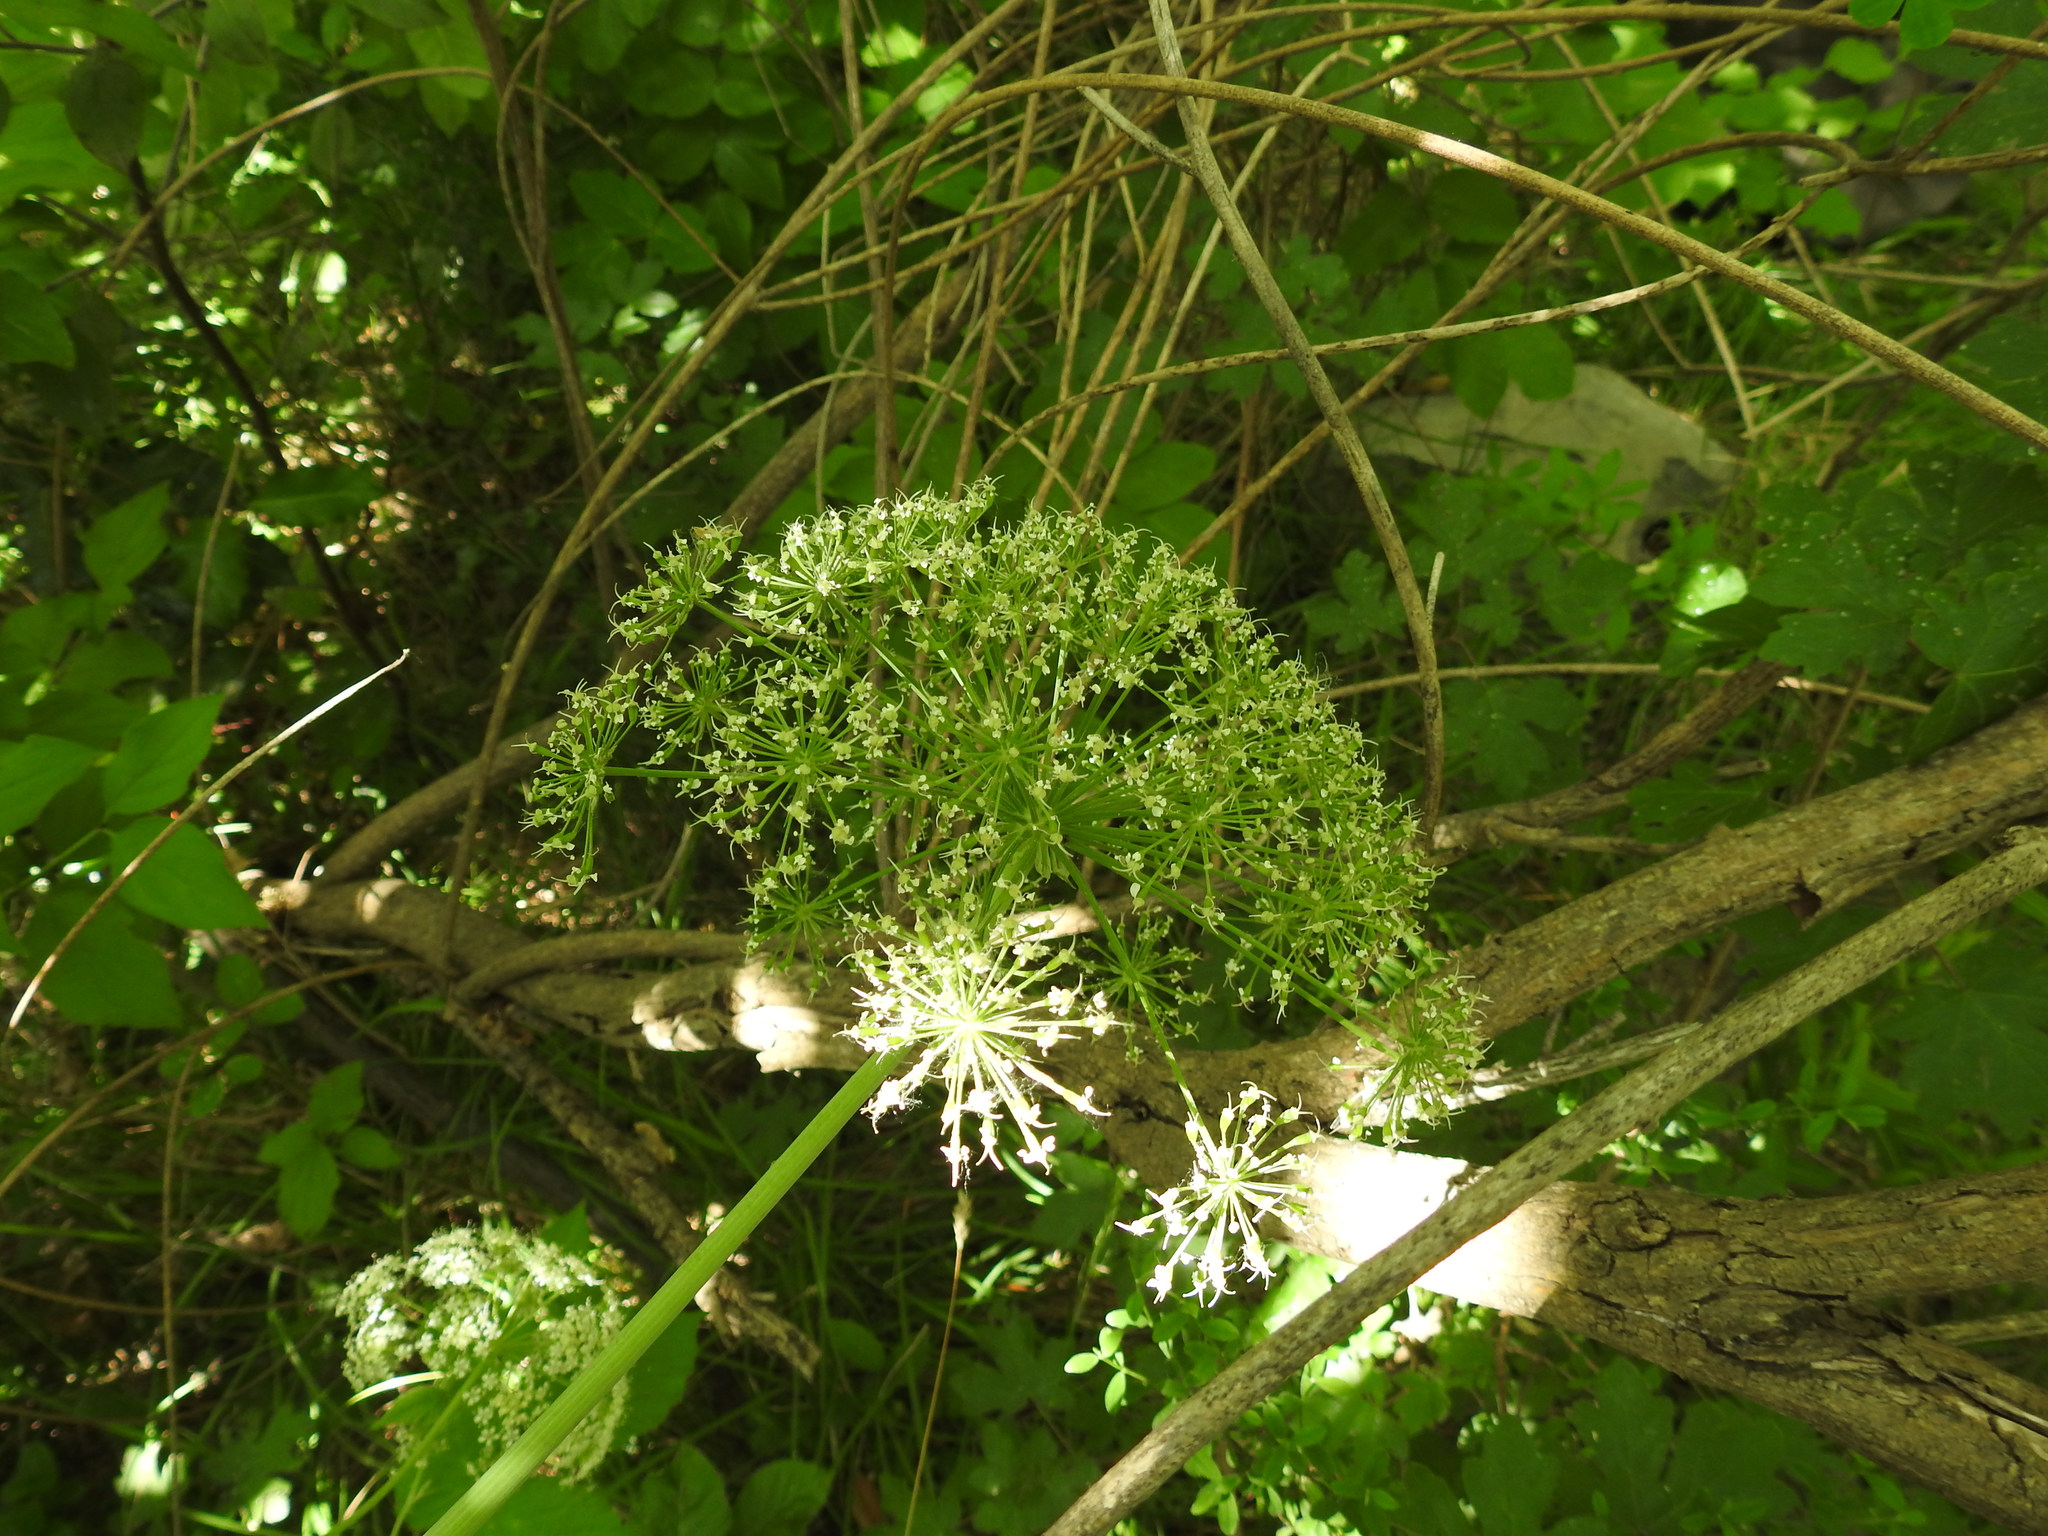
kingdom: Plantae
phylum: Tracheophyta
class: Magnoliopsida
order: Apiales
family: Apiaceae
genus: Siler
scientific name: Siler montanum
